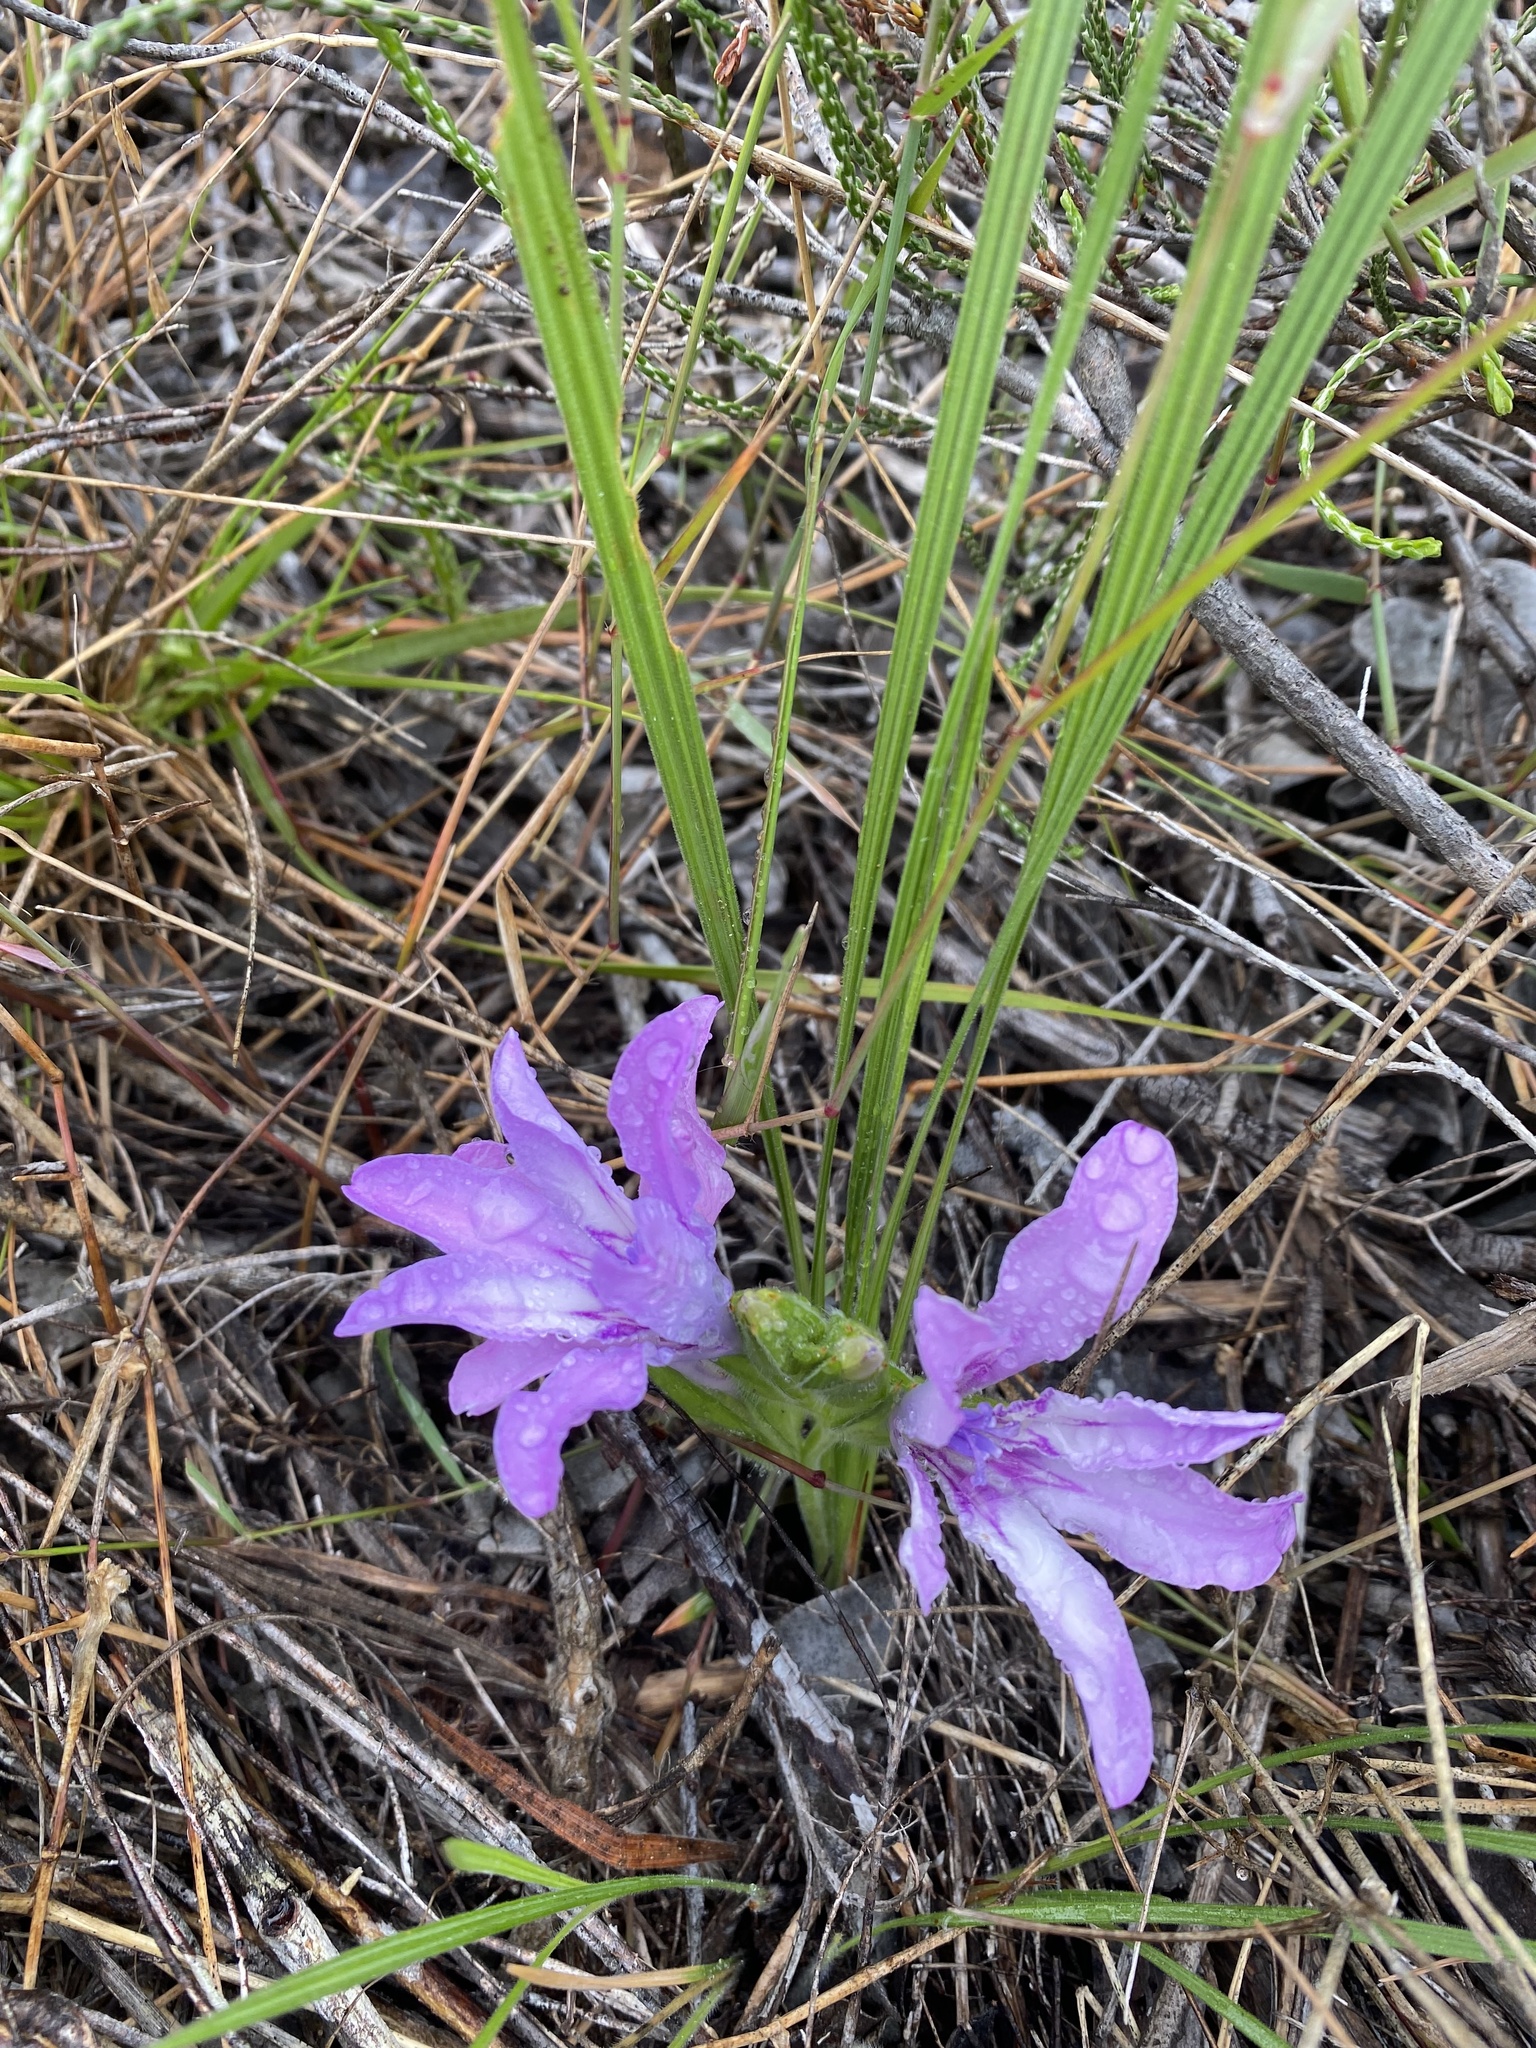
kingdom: Plantae
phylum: Tracheophyta
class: Liliopsida
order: Asparagales
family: Iridaceae
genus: Babiana
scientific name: Babiana ambigua
